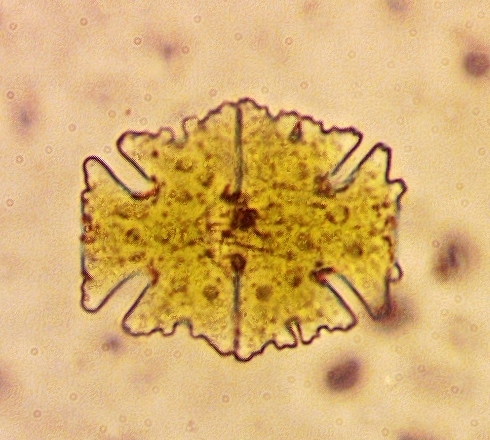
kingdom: Plantae
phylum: Charophyta
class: Conjugatophyceae
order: Desmidiales
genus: Micrasterias
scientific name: Micrasterias americana
